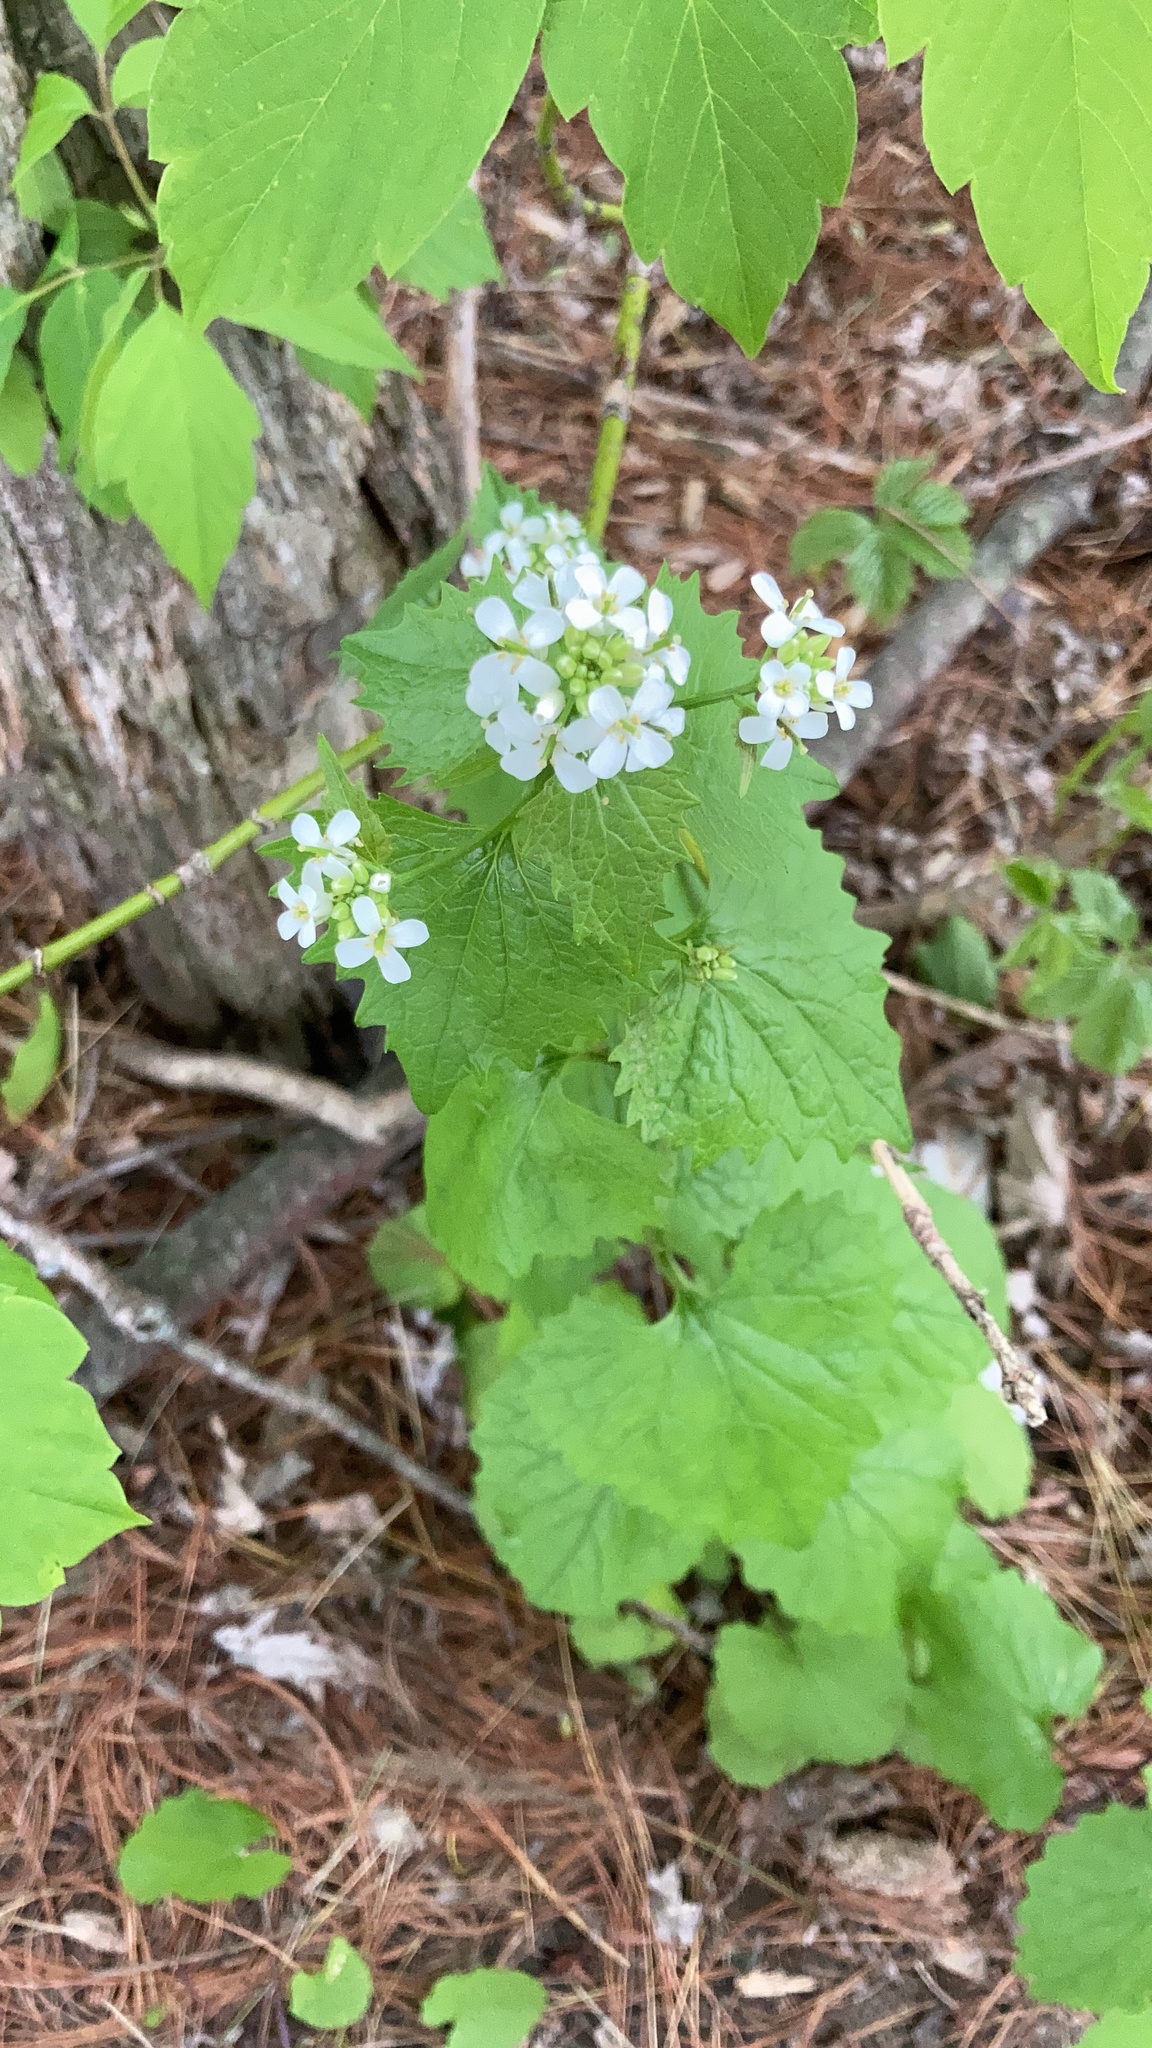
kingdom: Plantae
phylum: Tracheophyta
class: Magnoliopsida
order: Brassicales
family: Brassicaceae
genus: Alliaria
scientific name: Alliaria petiolata
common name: Garlic mustard
